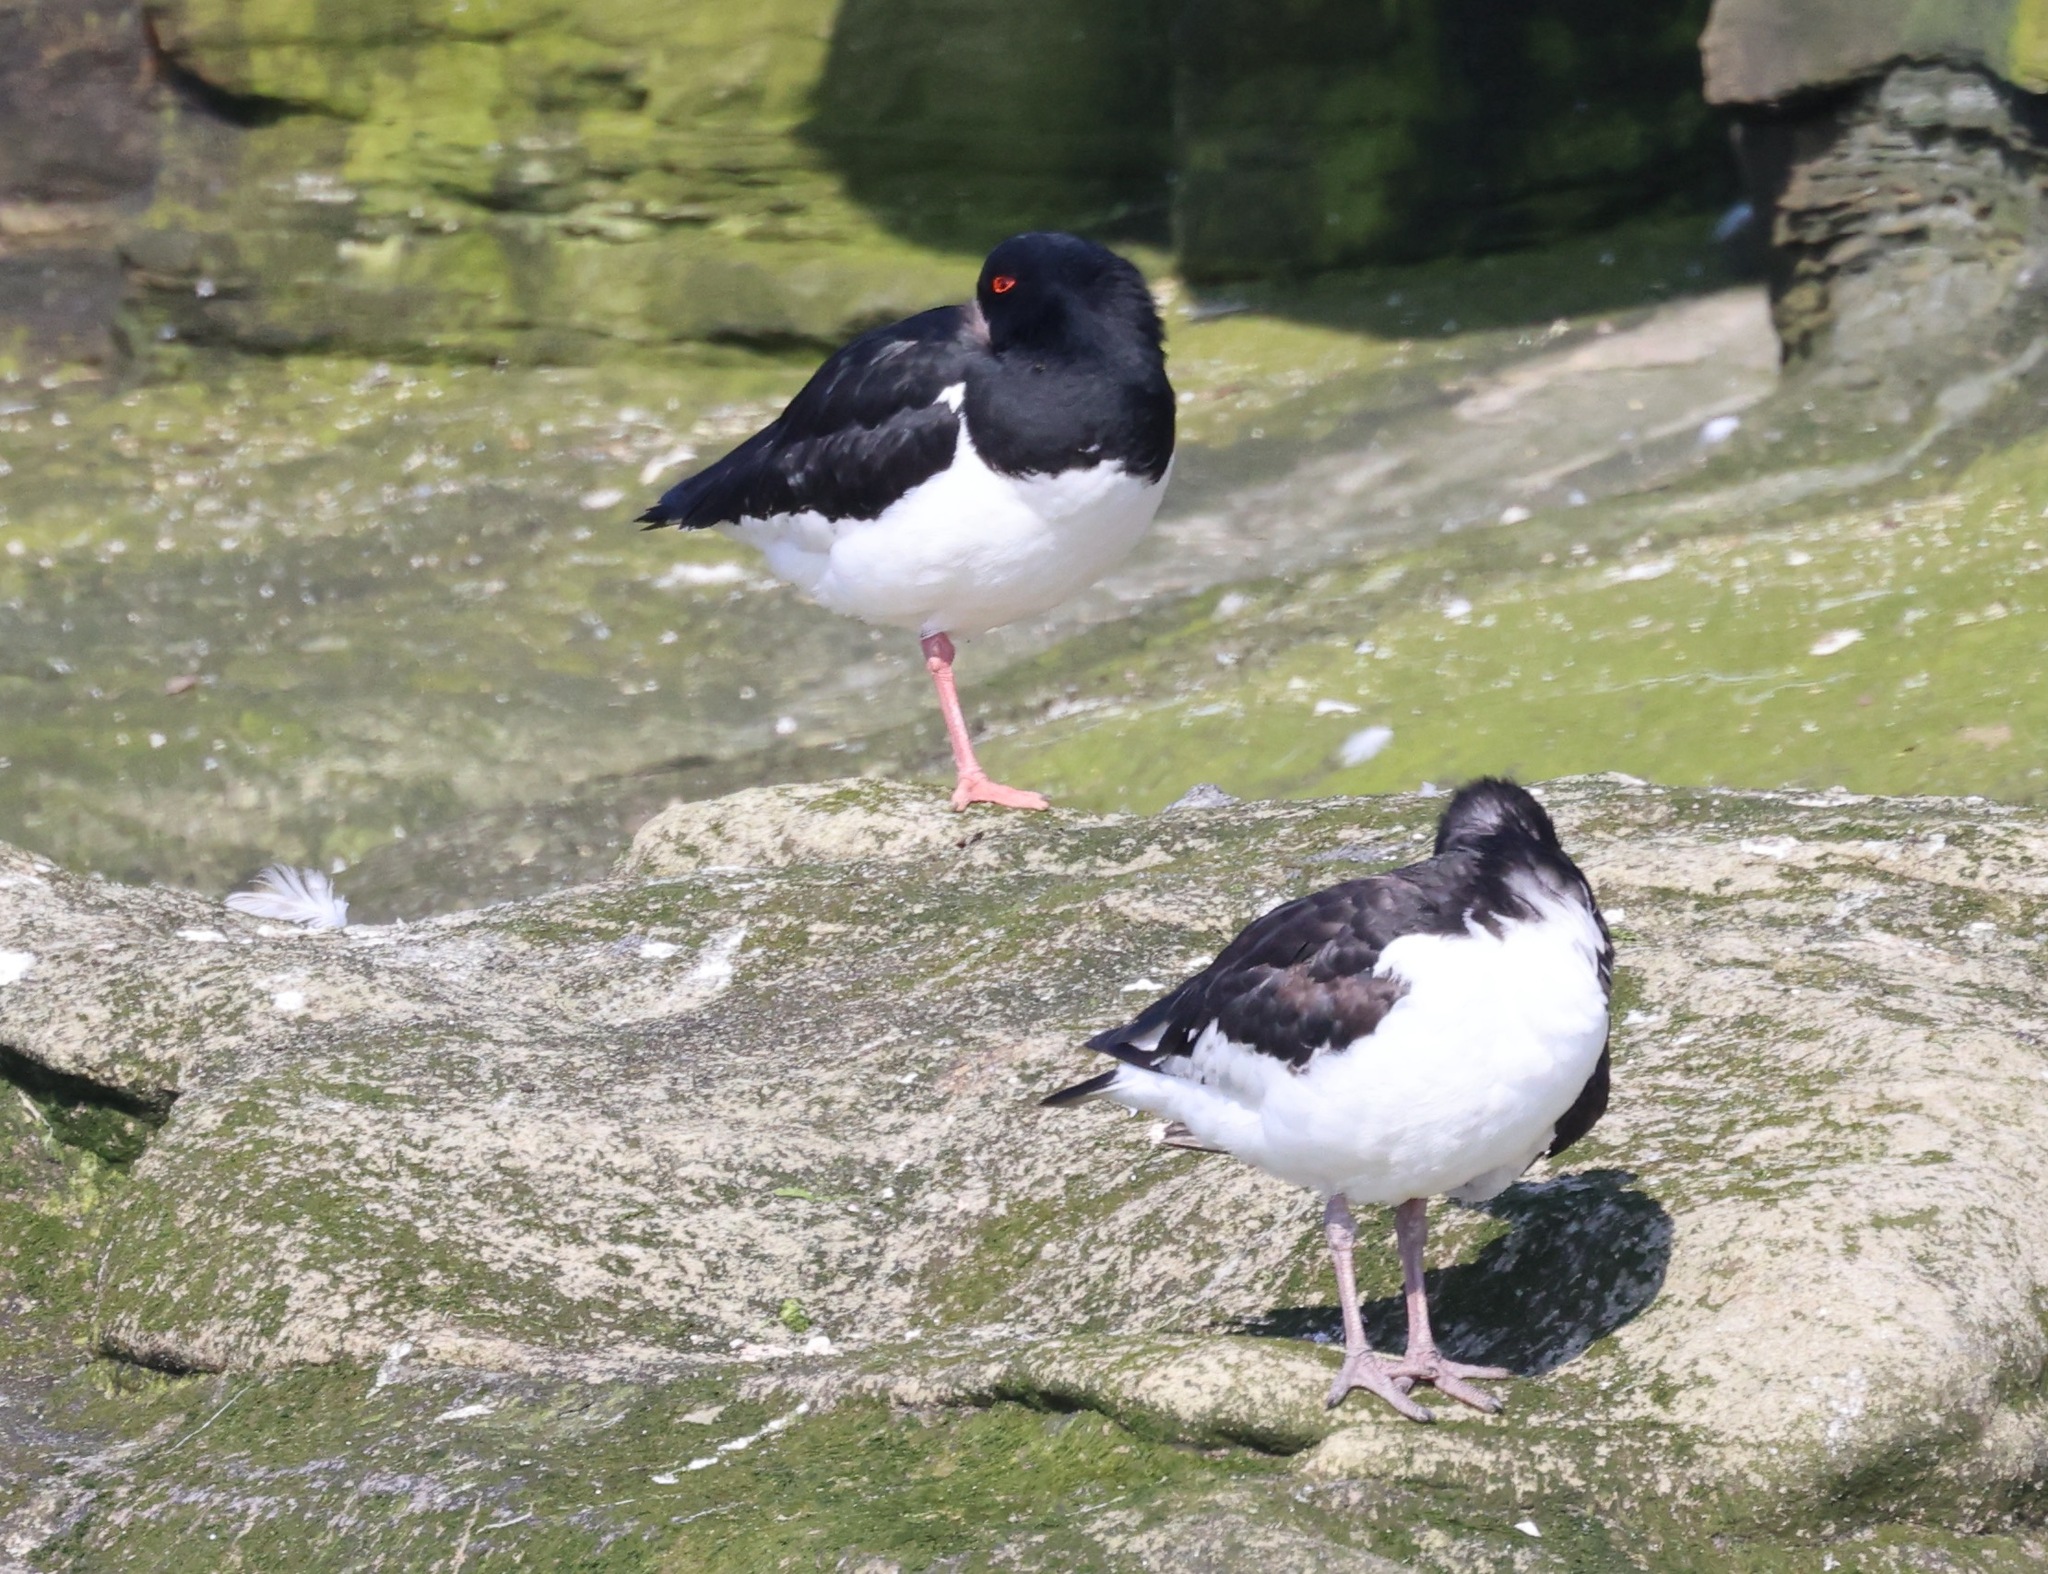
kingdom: Animalia
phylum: Chordata
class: Aves
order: Charadriiformes
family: Haematopodidae
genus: Haematopus
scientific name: Haematopus ostralegus
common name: Eurasian oystercatcher
